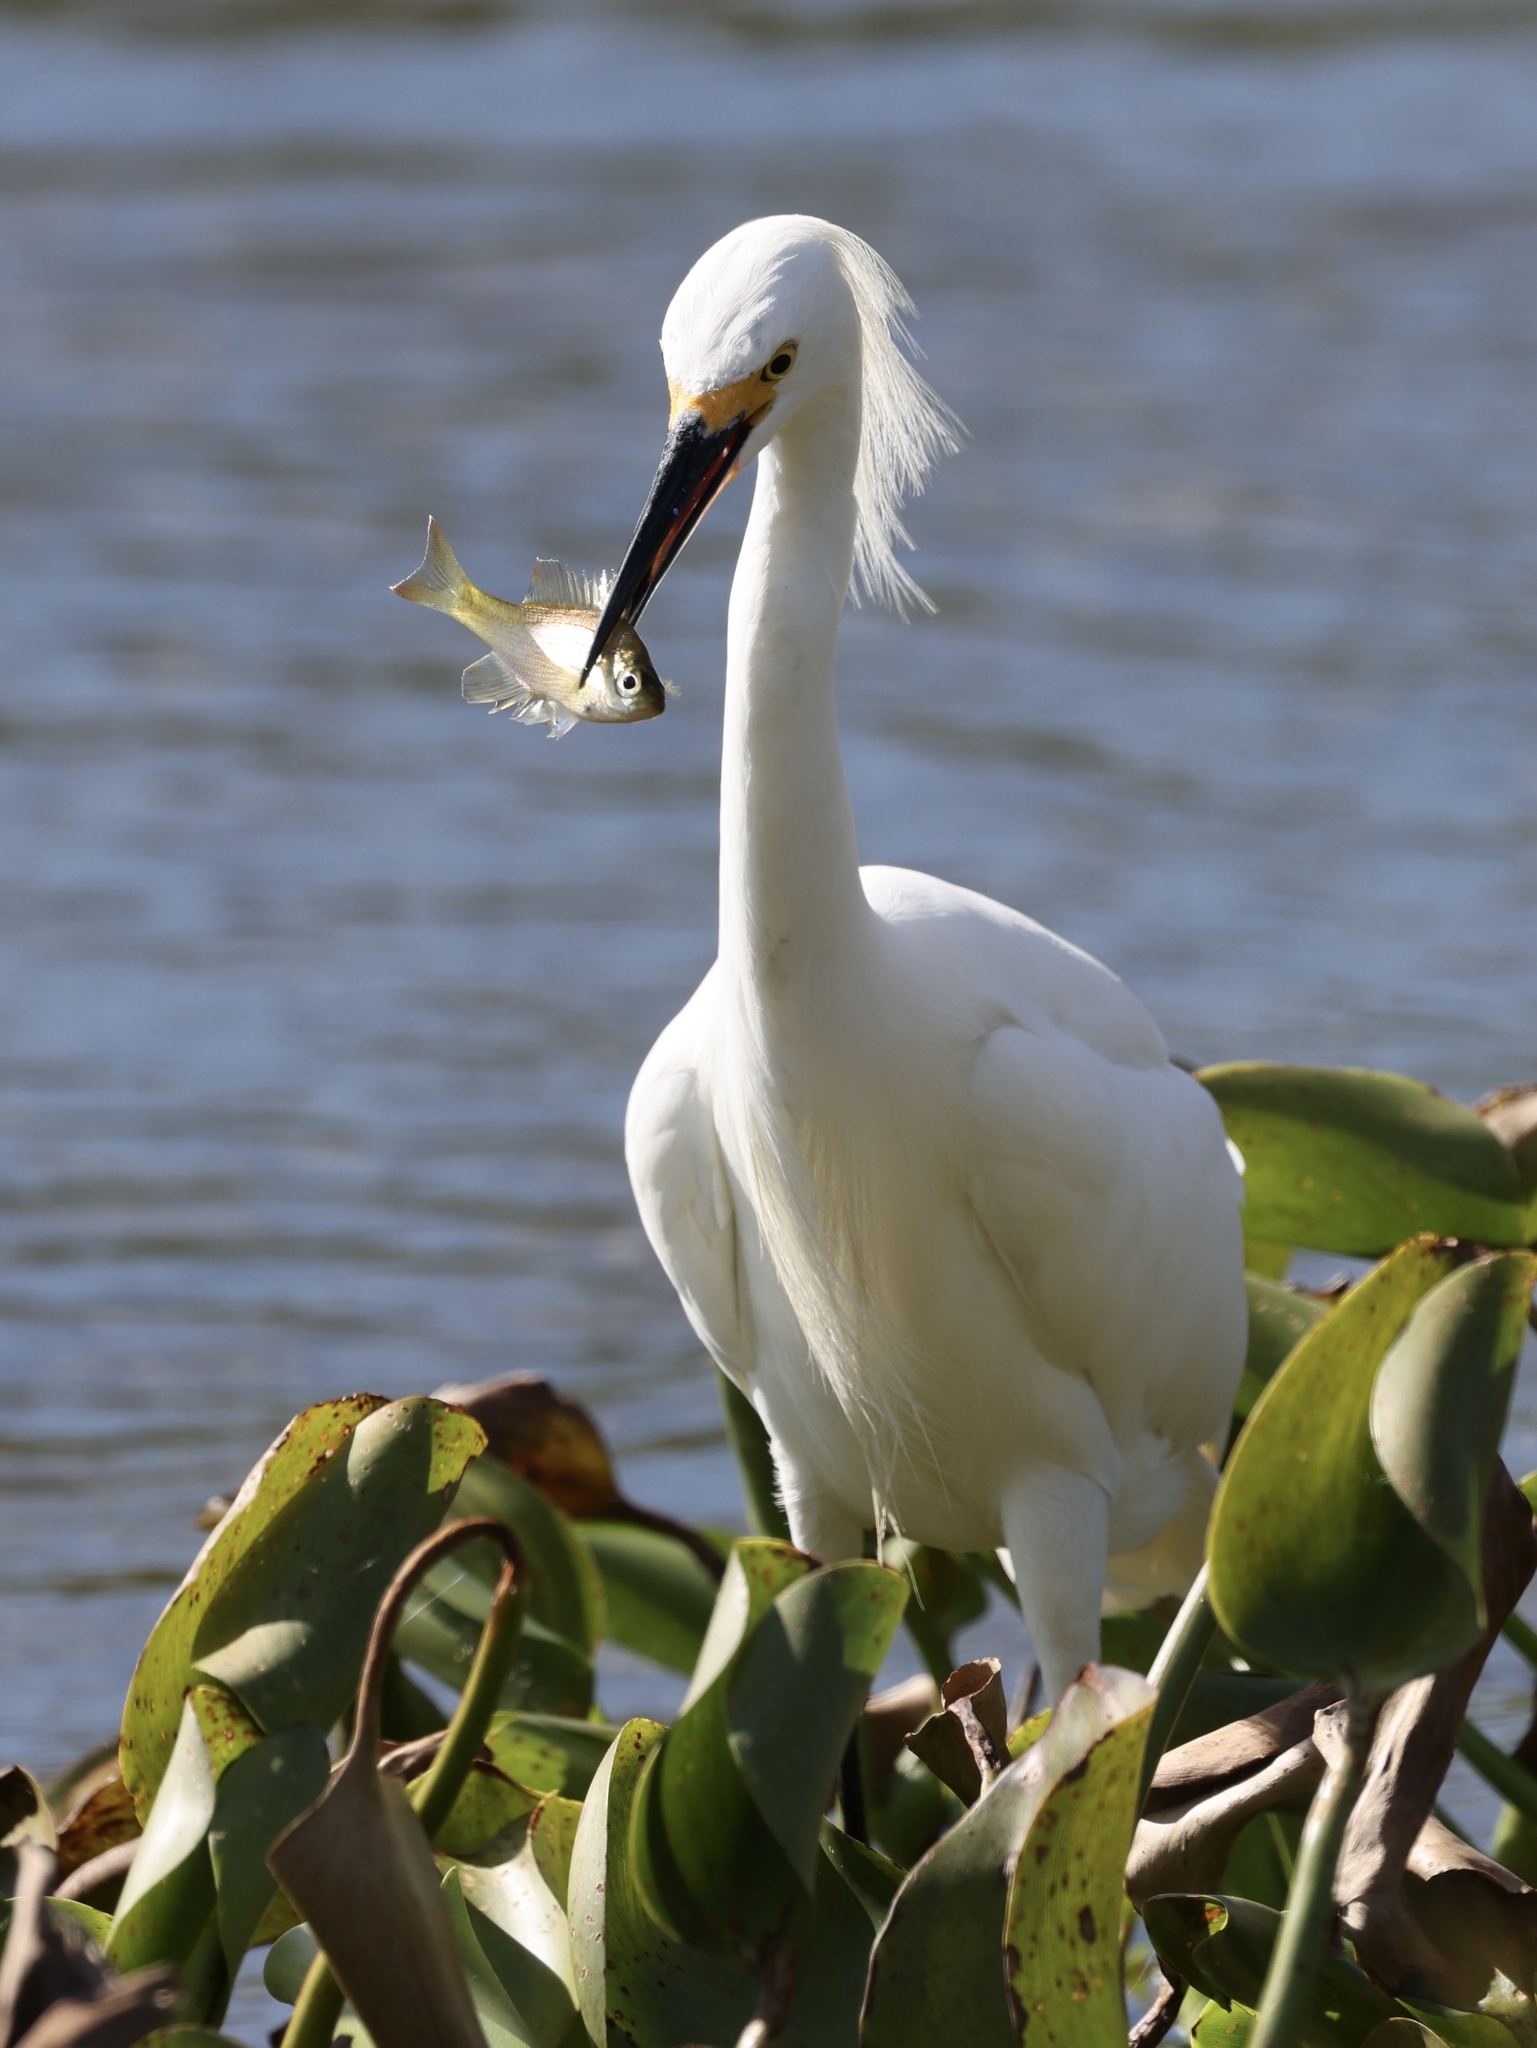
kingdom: Animalia
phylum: Chordata
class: Aves
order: Pelecaniformes
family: Ardeidae
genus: Egretta
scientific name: Egretta thula
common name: Snowy egret
